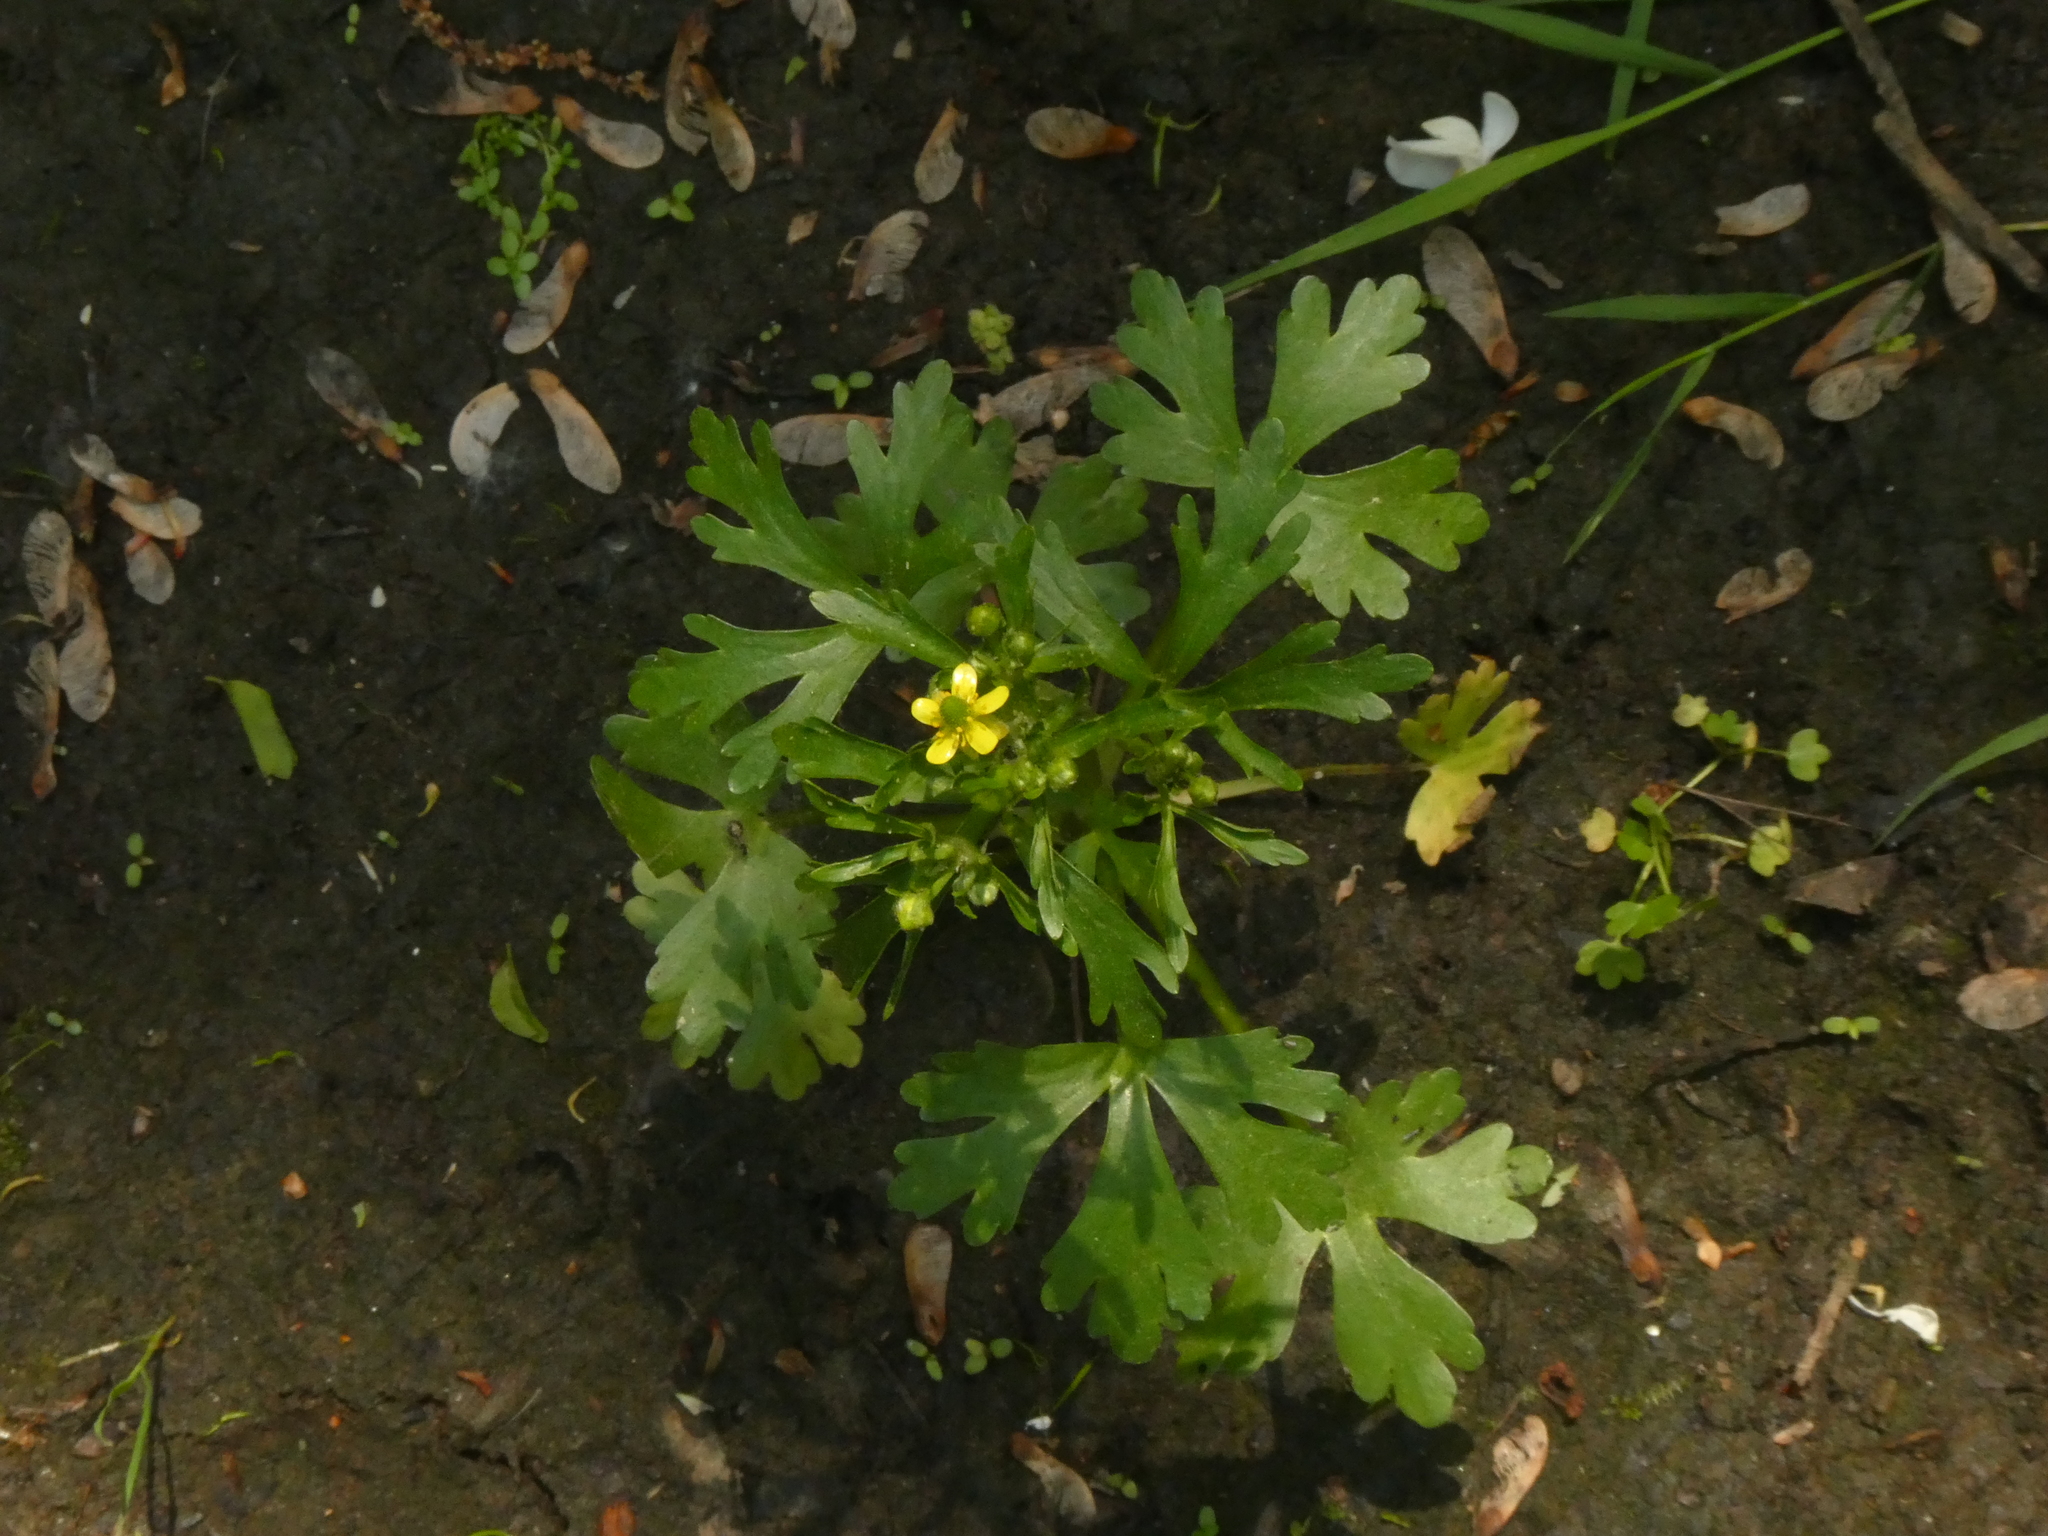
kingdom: Plantae
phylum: Tracheophyta
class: Magnoliopsida
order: Ranunculales
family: Ranunculaceae
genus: Ranunculus
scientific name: Ranunculus sceleratus
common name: Celery-leaved buttercup
